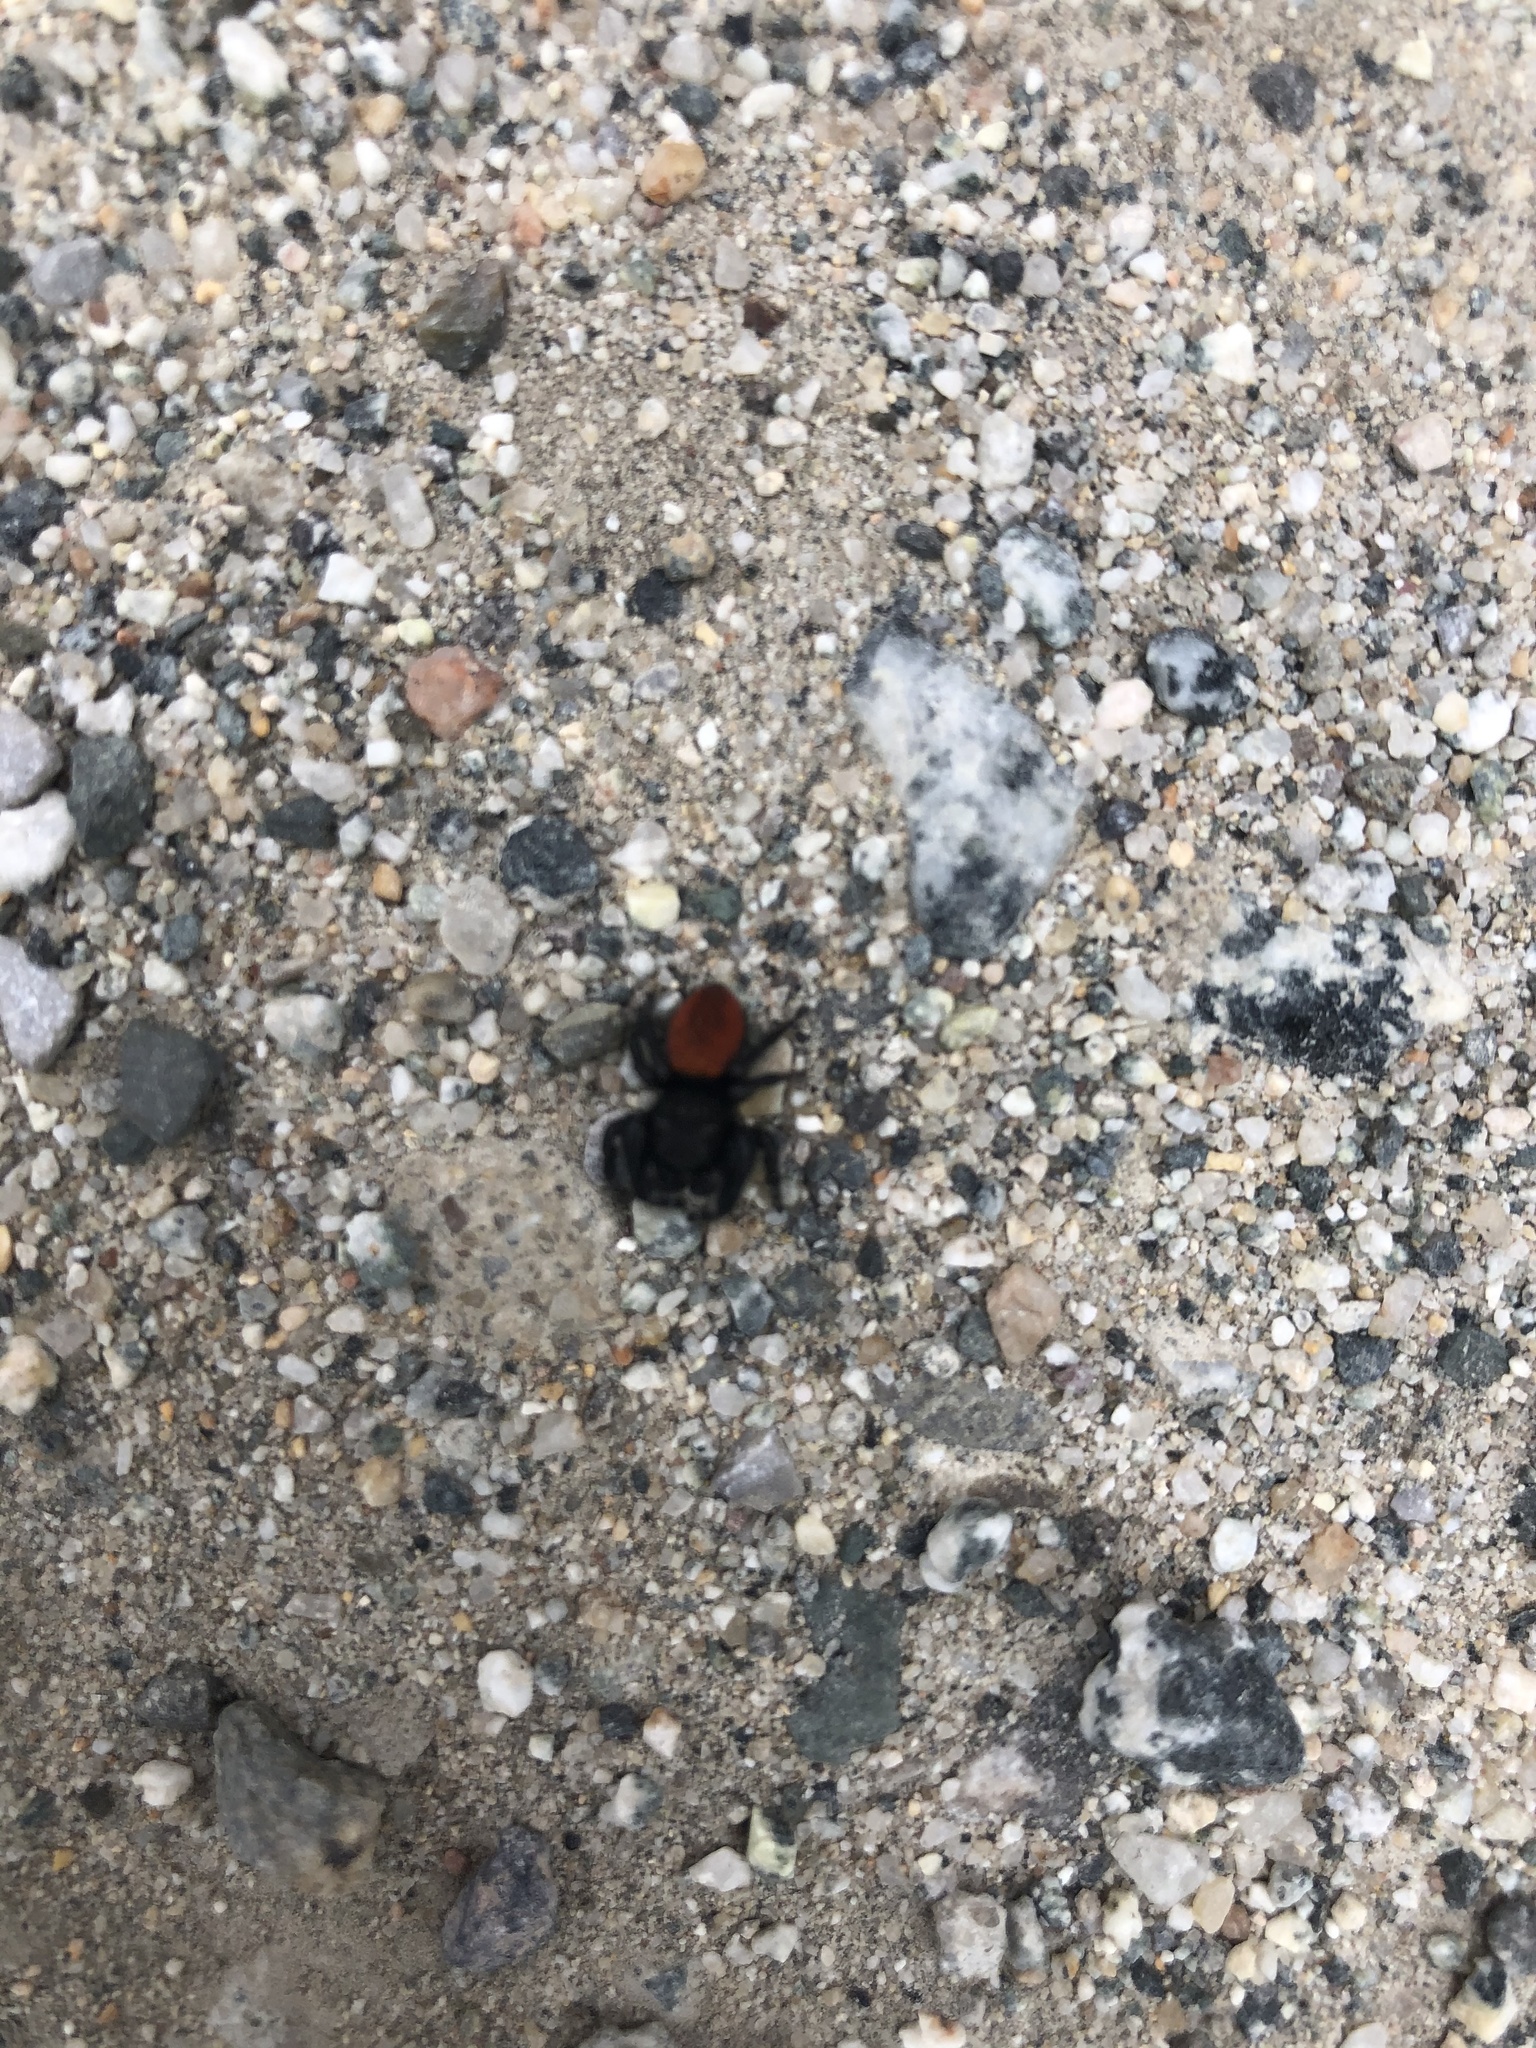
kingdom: Animalia
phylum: Arthropoda
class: Arachnida
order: Araneae
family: Salticidae
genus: Phidippus
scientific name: Phidippus johnsoni
